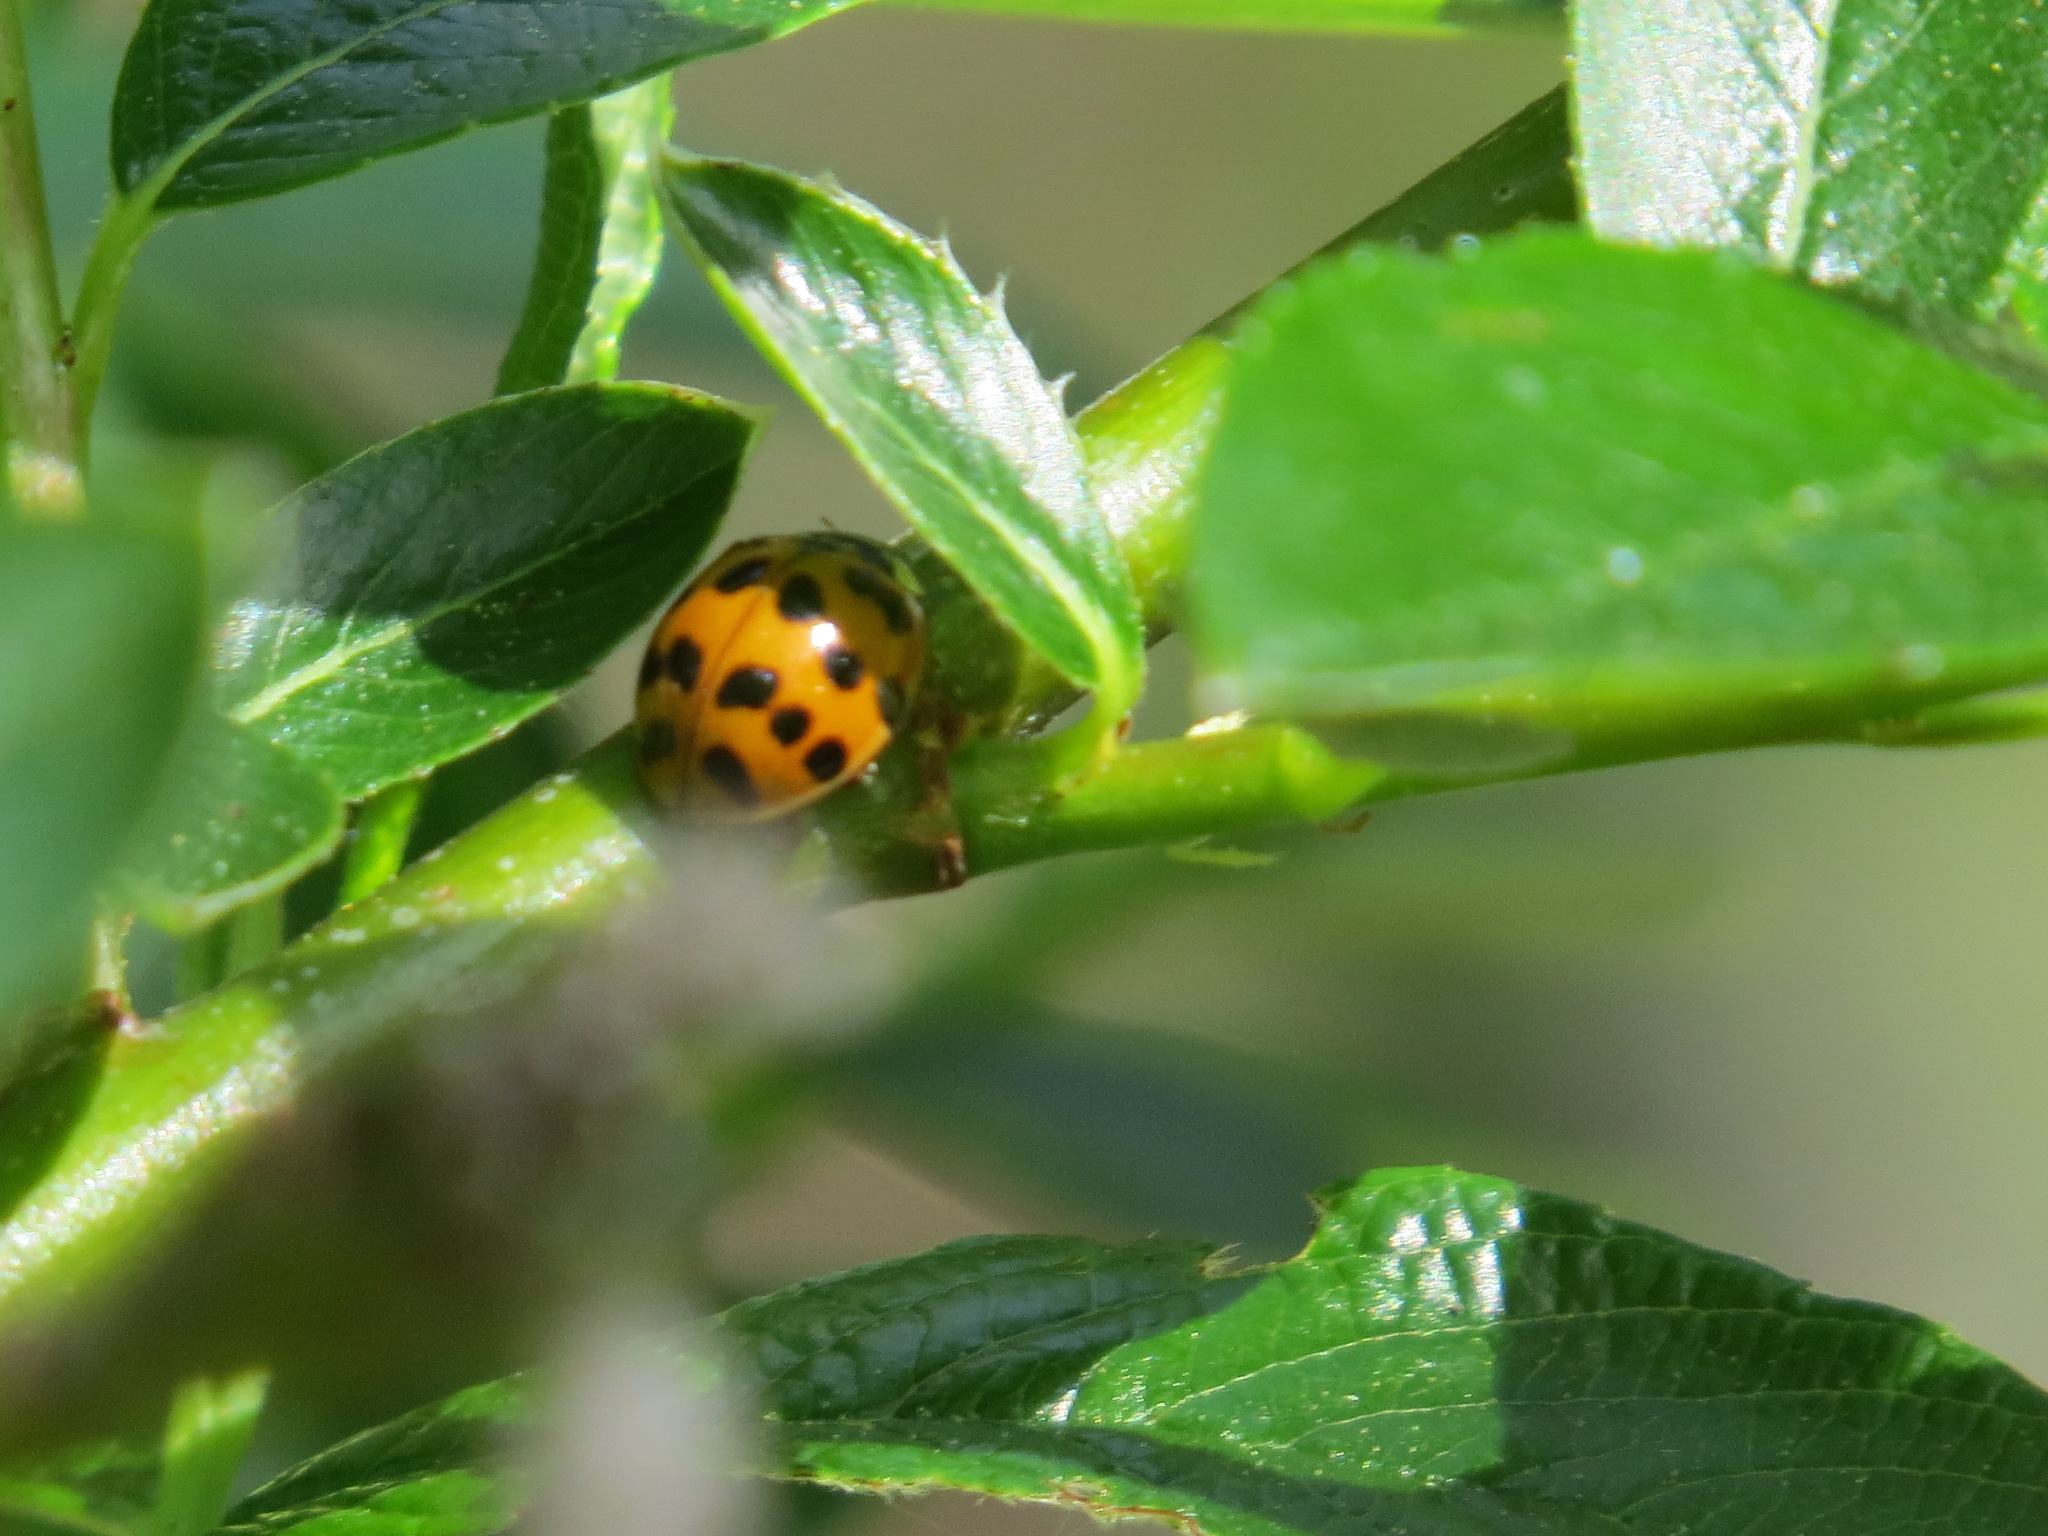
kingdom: Animalia
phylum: Arthropoda
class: Insecta
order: Coleoptera
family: Coccinellidae
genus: Harmonia
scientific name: Harmonia axyridis
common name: Harlequin ladybird
